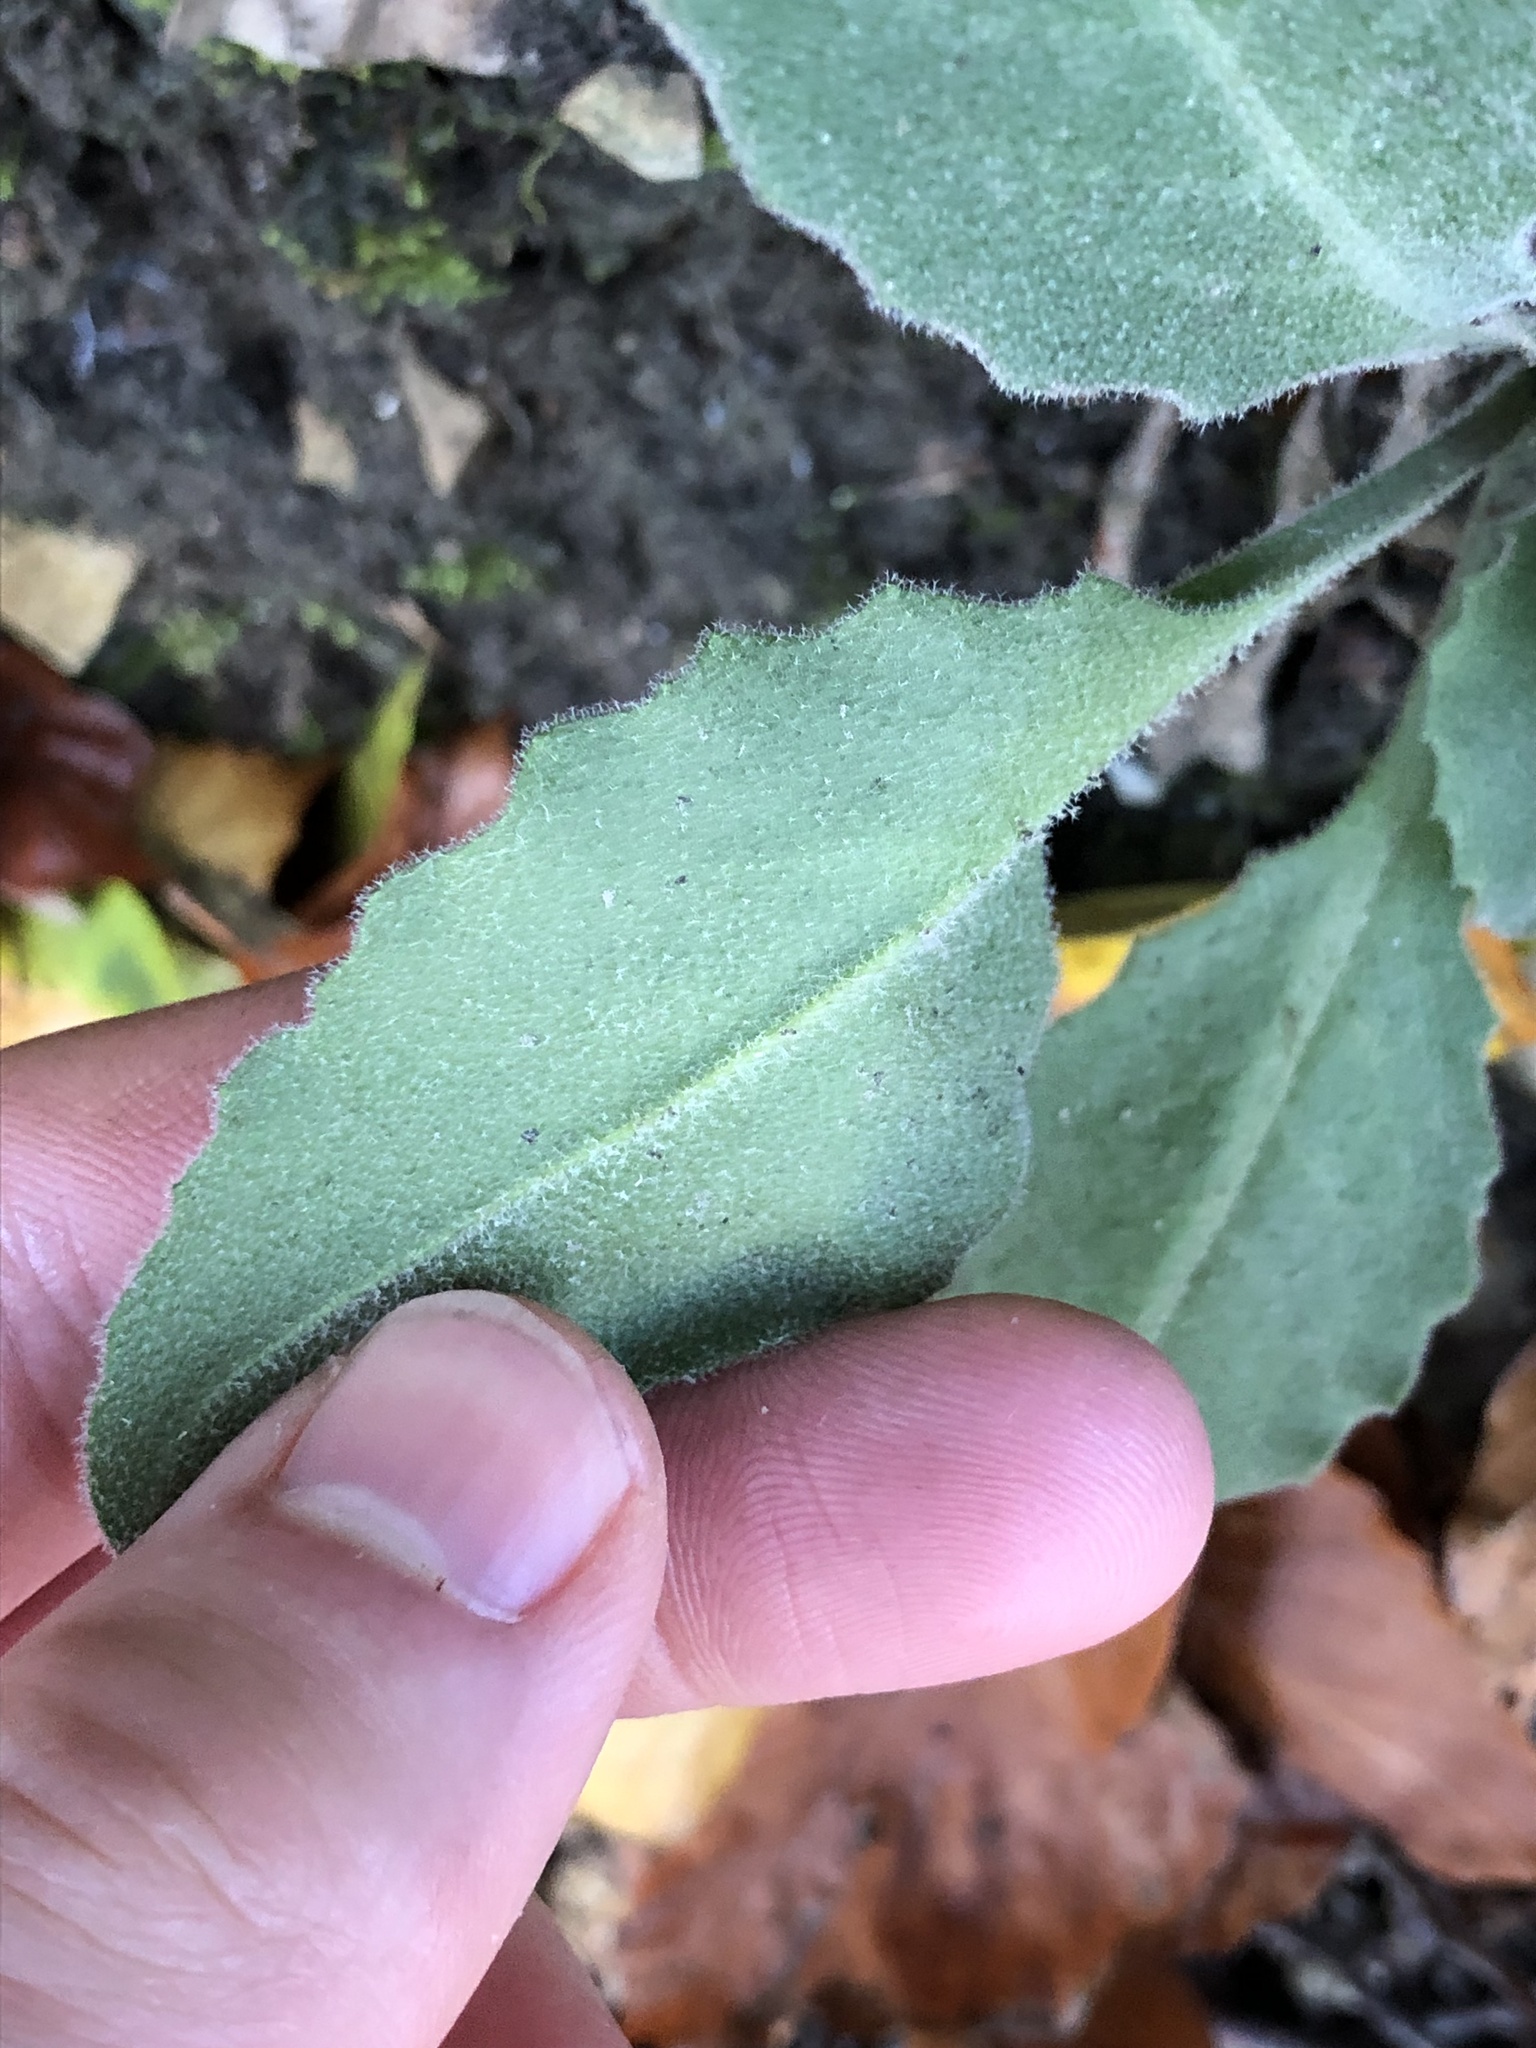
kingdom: Plantae
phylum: Tracheophyta
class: Magnoliopsida
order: Brassicales
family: Brassicaceae
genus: Pseudoturritis
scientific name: Pseudoturritis turrita
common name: Tower cress
